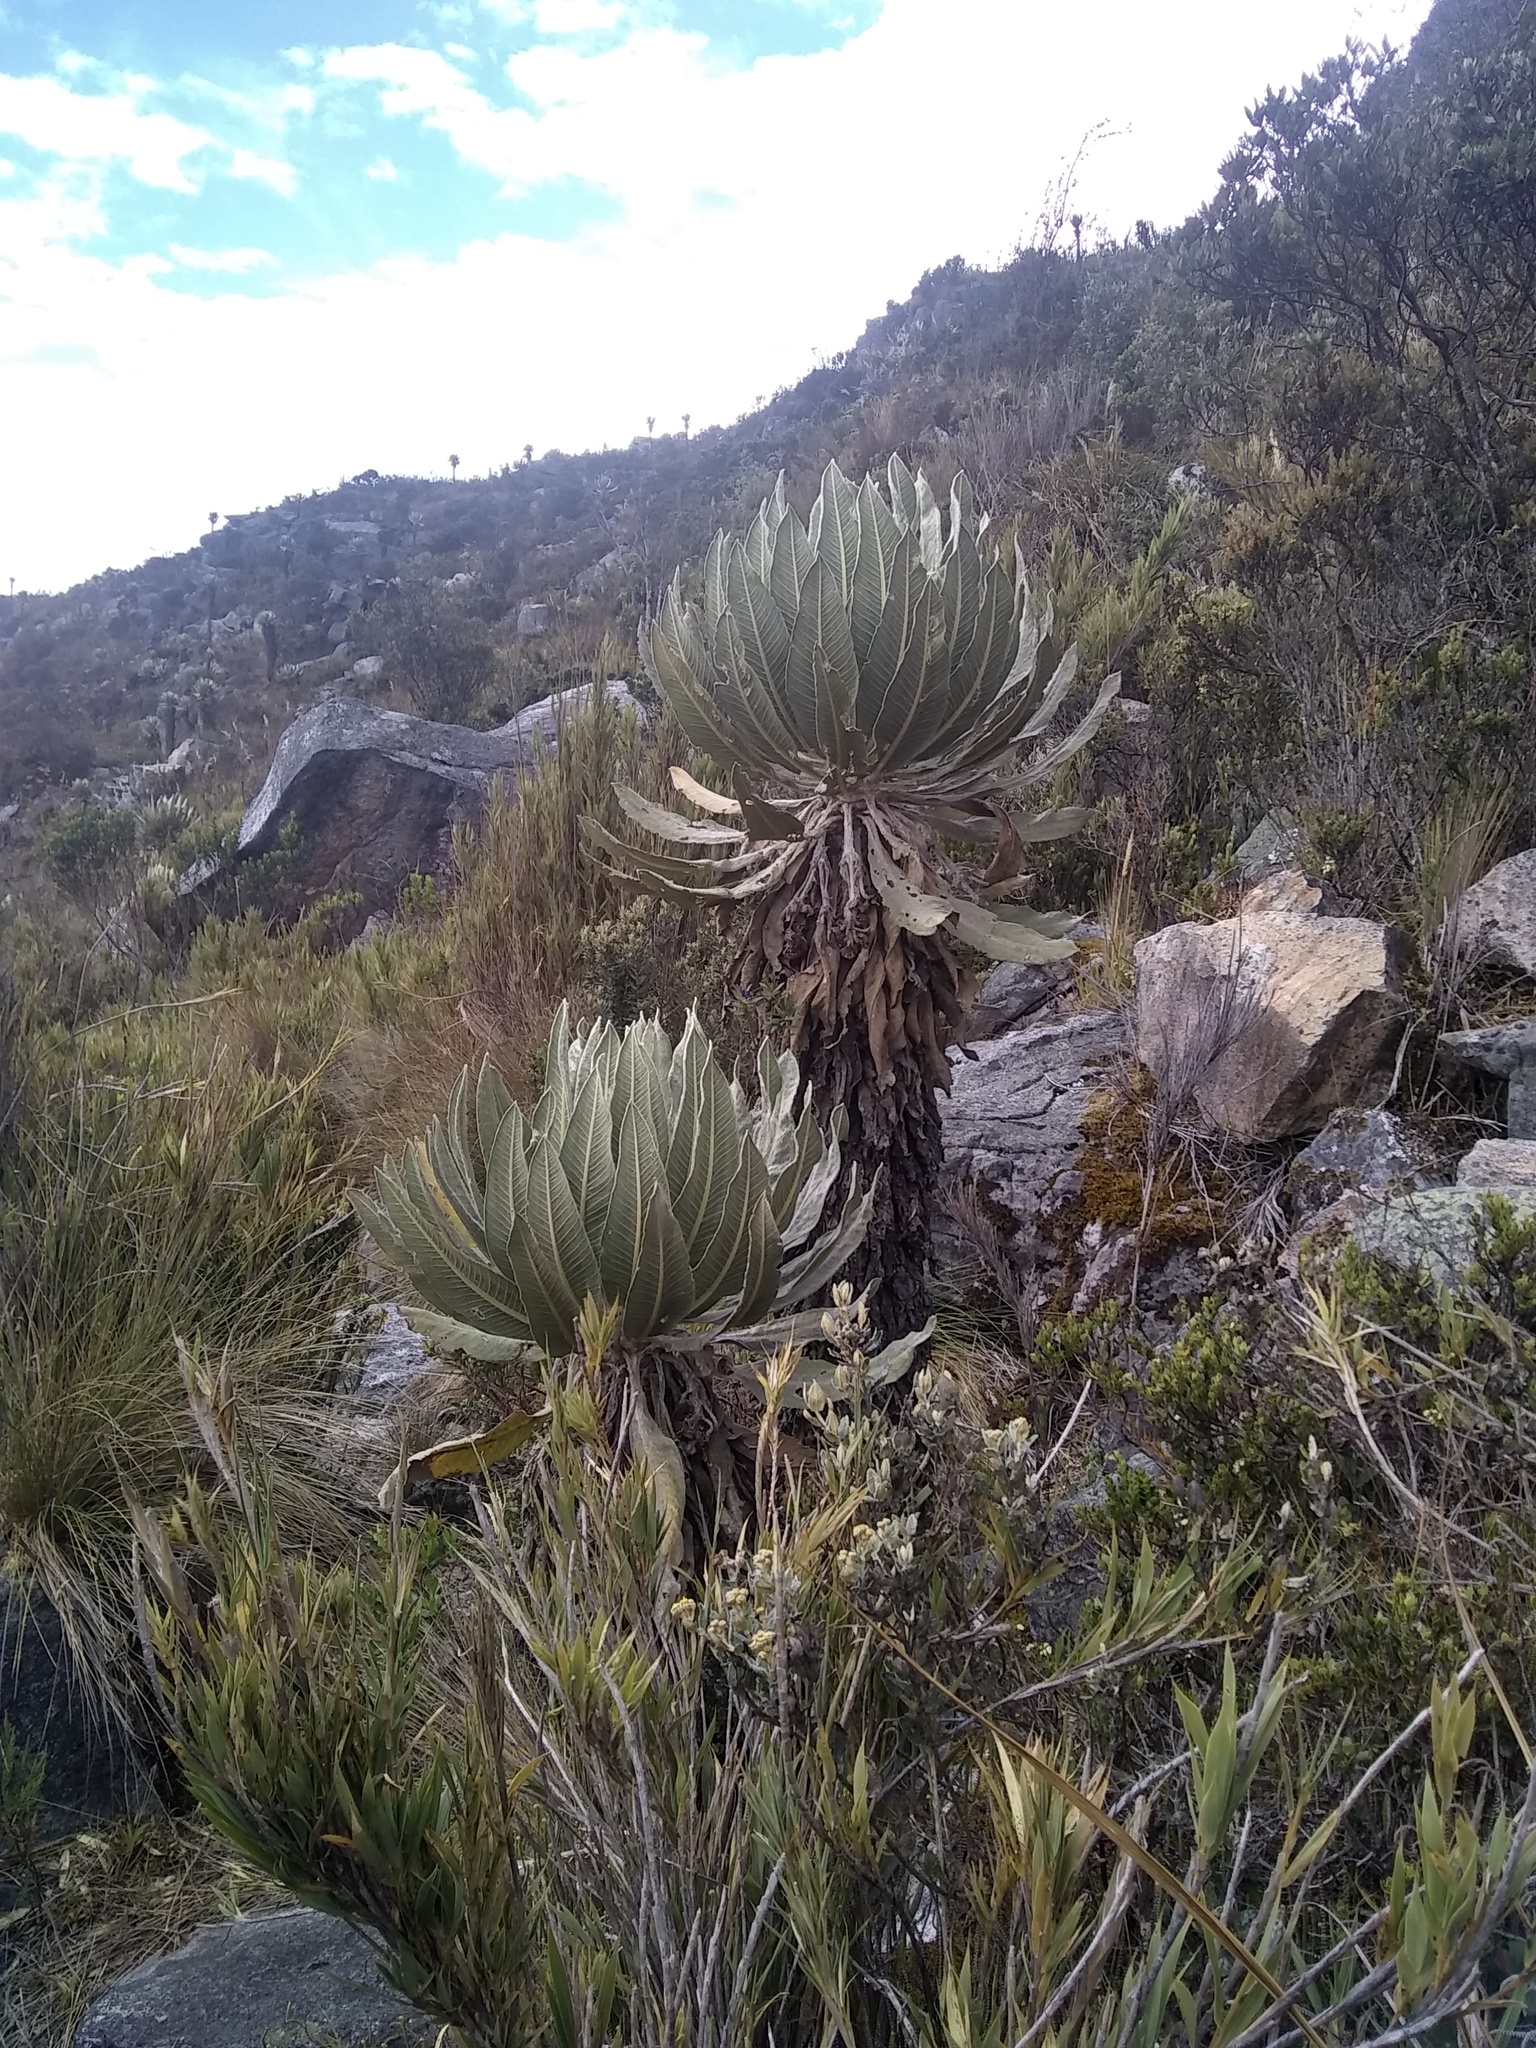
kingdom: Plantae
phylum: Tracheophyta
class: Magnoliopsida
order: Asterales
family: Asteraceae
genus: Espeletia
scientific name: Espeletia cachaluensis
